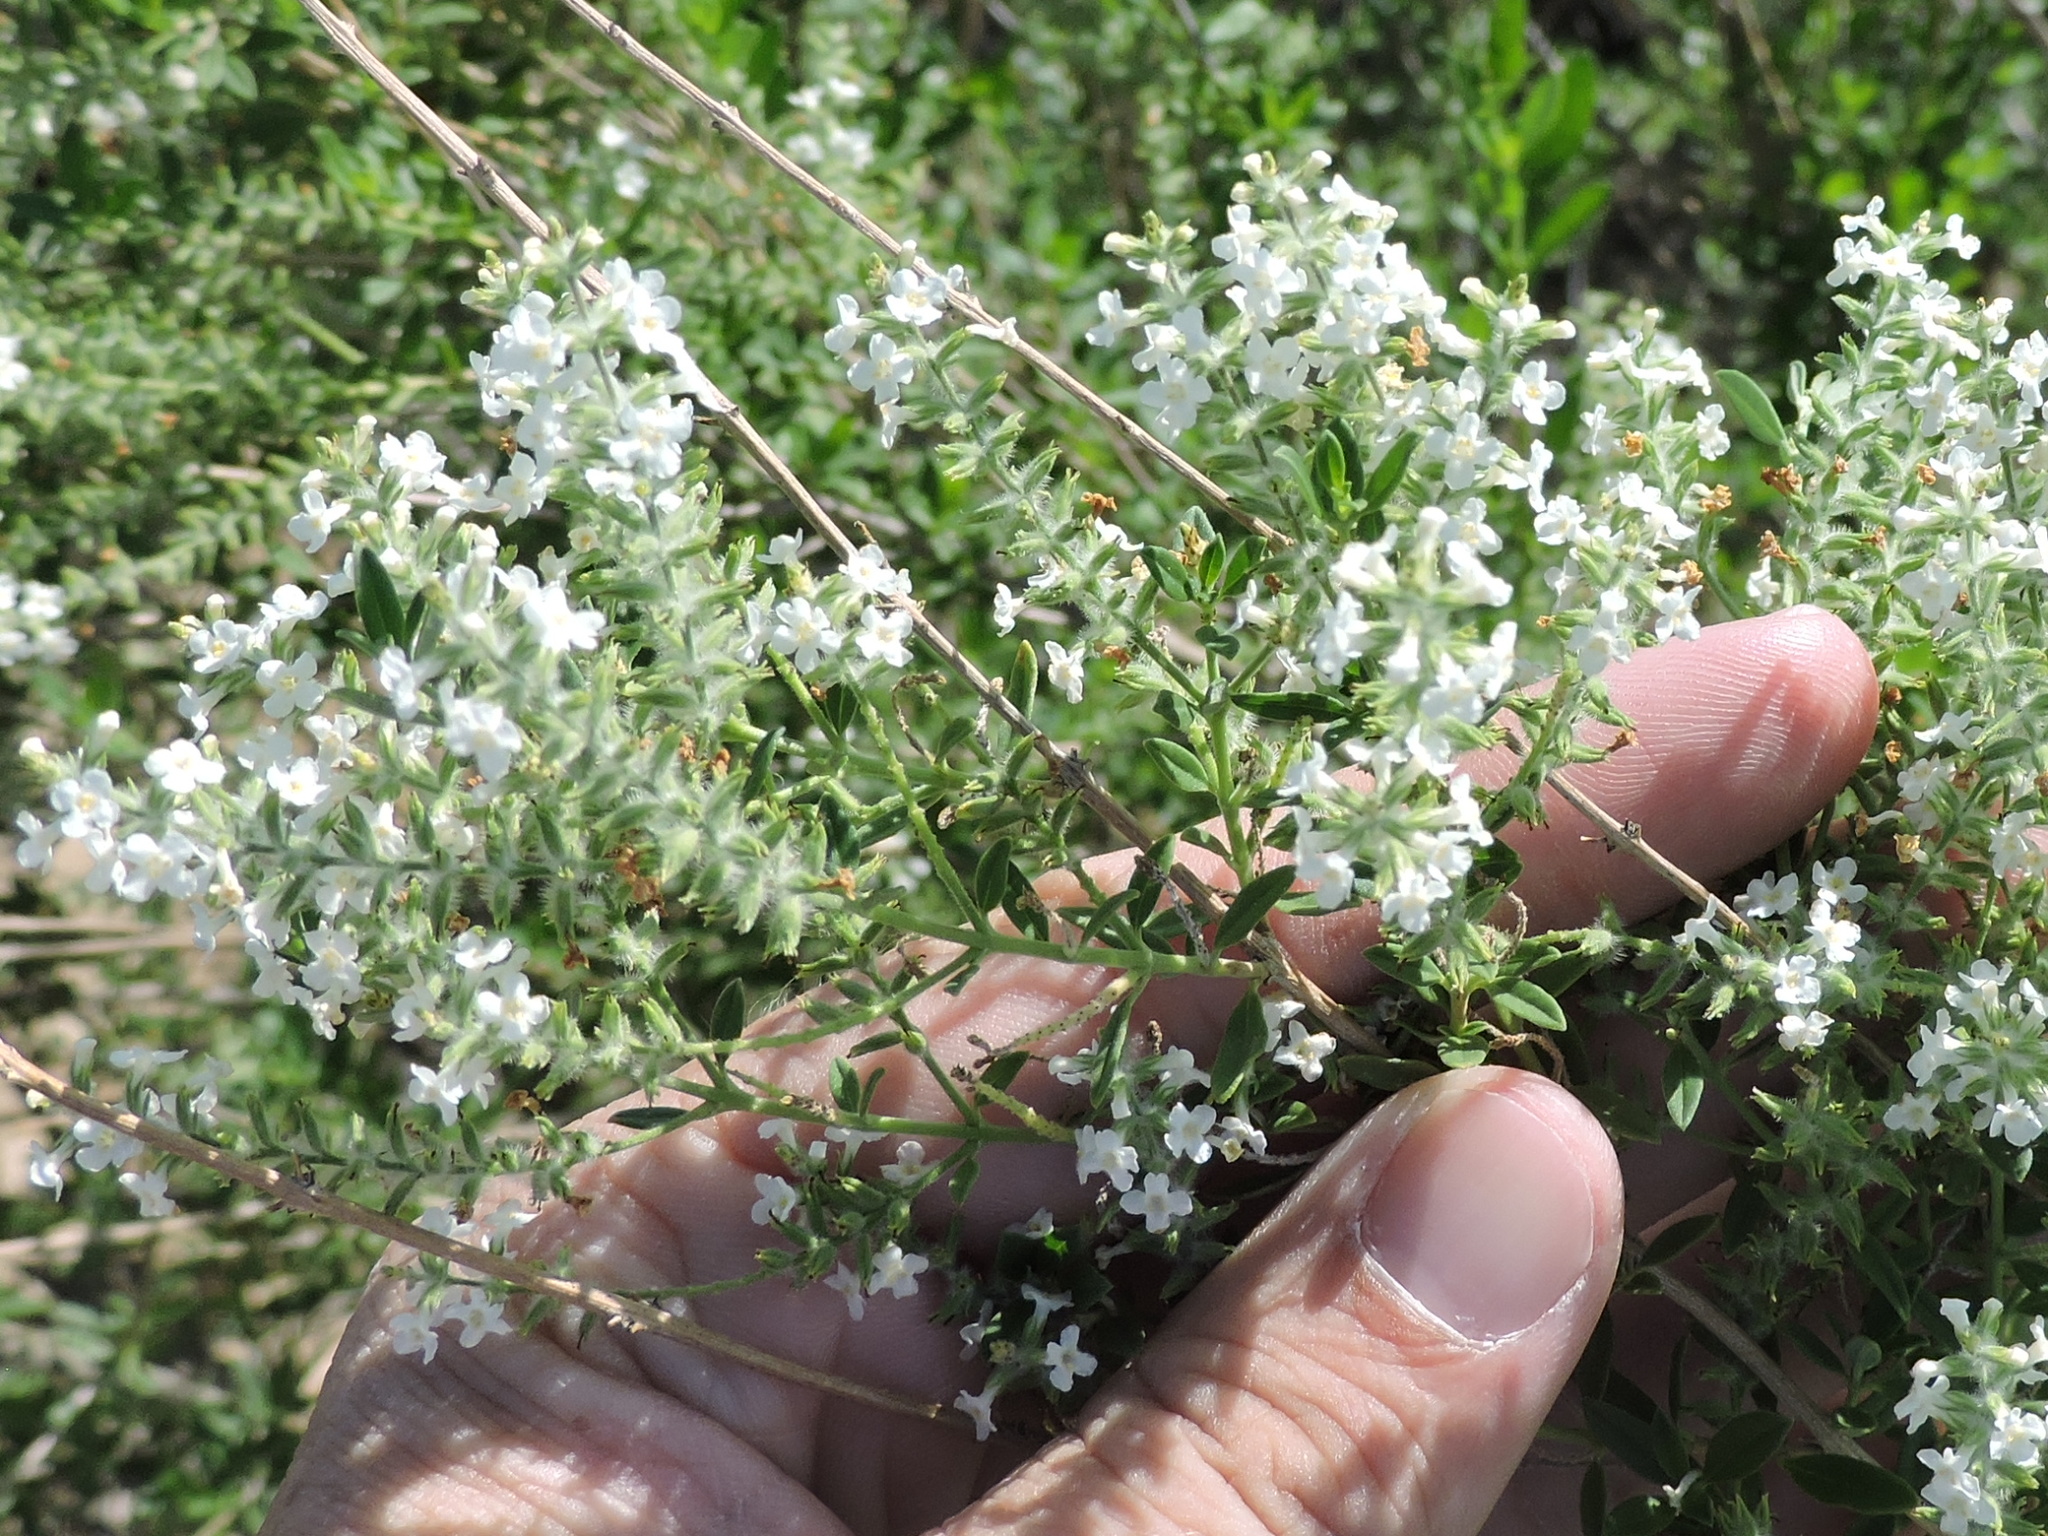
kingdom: Plantae
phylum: Tracheophyta
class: Magnoliopsida
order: Lamiales
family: Verbenaceae
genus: Aloysia
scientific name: Aloysia gratissima
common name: Common bee-brush
